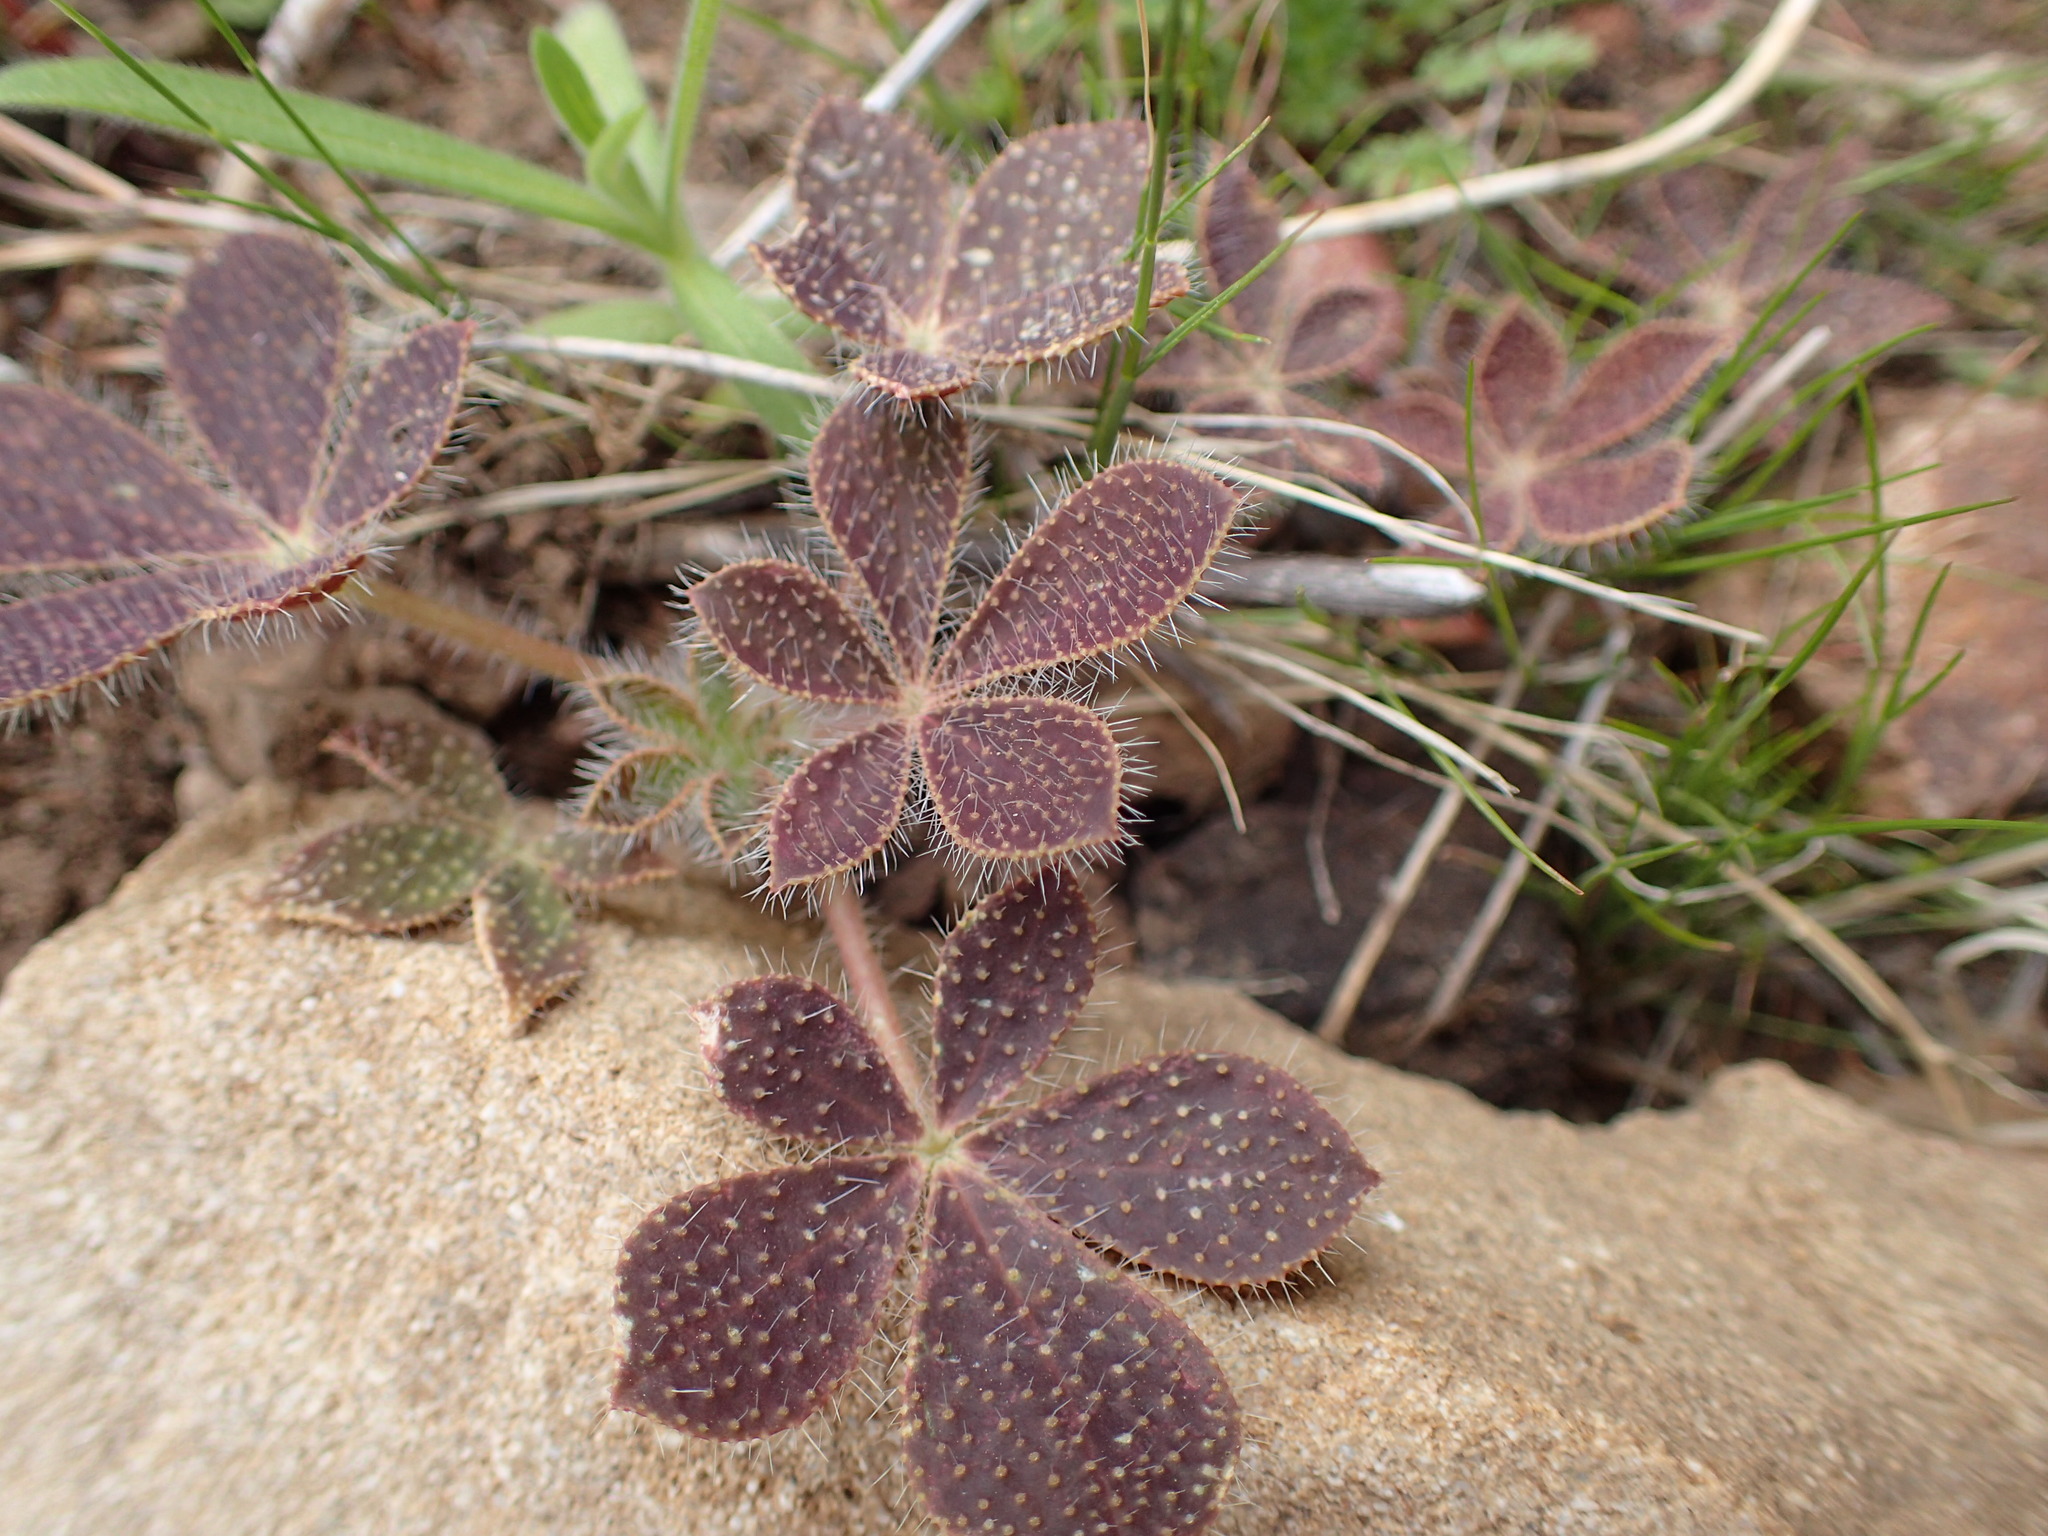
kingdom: Plantae
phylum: Tracheophyta
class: Magnoliopsida
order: Fabales
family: Fabaceae
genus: Lupinus
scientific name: Lupinus hirsutissimus
